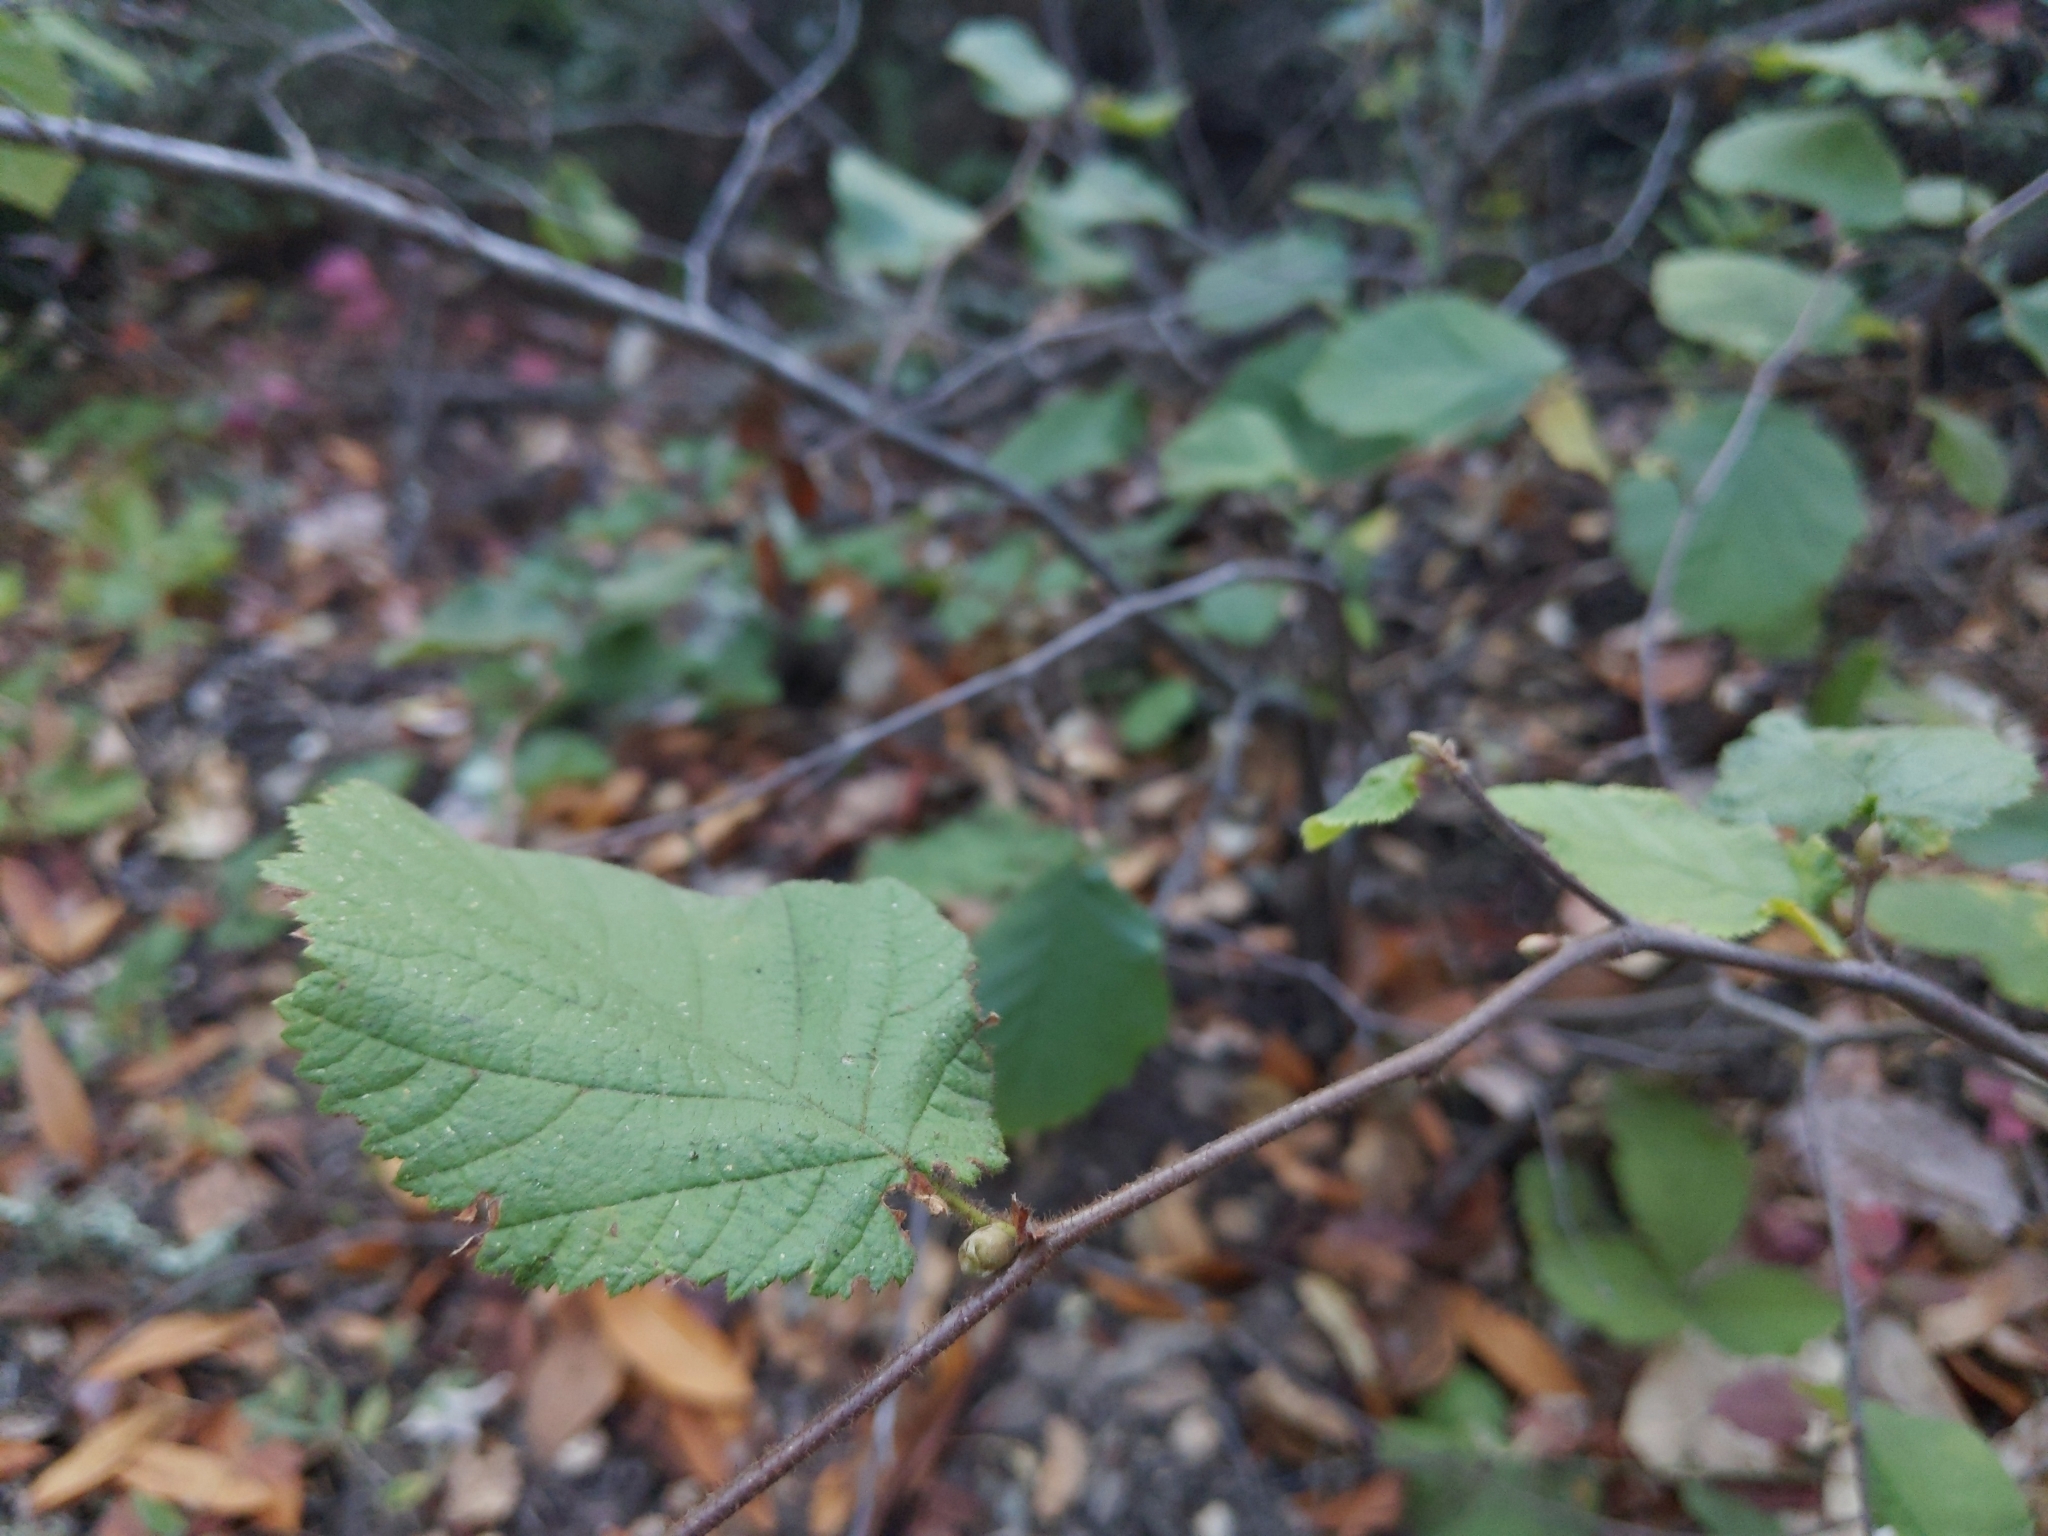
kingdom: Plantae
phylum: Tracheophyta
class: Magnoliopsida
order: Fagales
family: Betulaceae
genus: Corylus
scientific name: Corylus cornuta
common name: Beaked hazel
